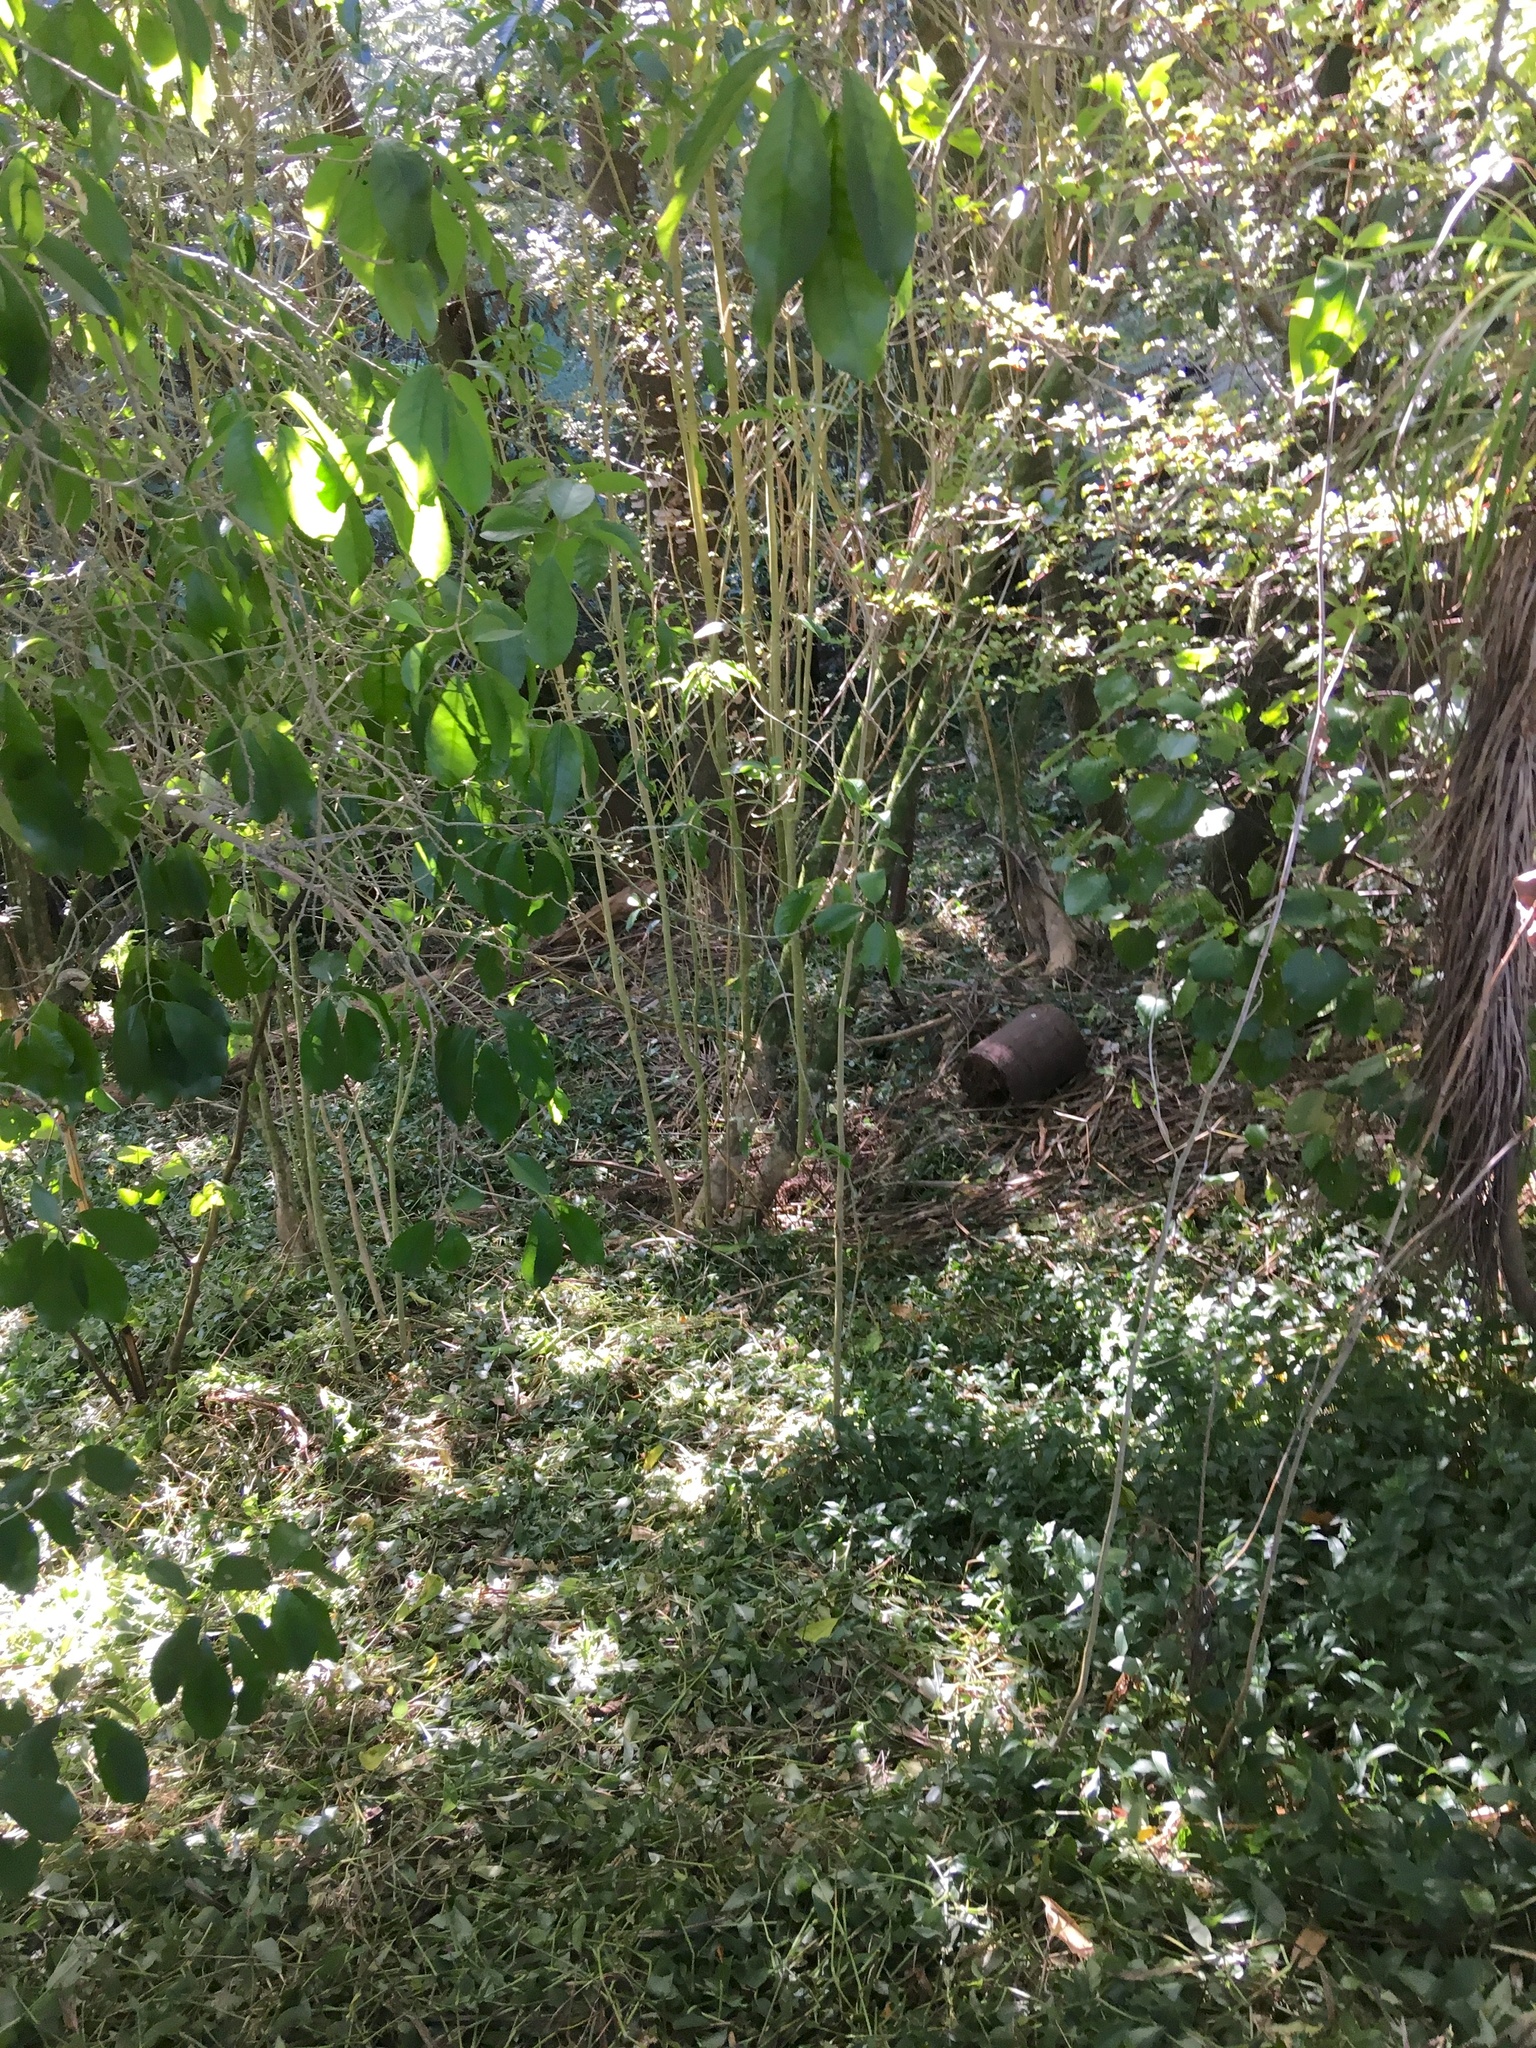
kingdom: Plantae
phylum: Tracheophyta
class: Magnoliopsida
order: Malpighiales
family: Violaceae
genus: Melicytus
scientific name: Melicytus ramiflorus
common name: Mahoe
